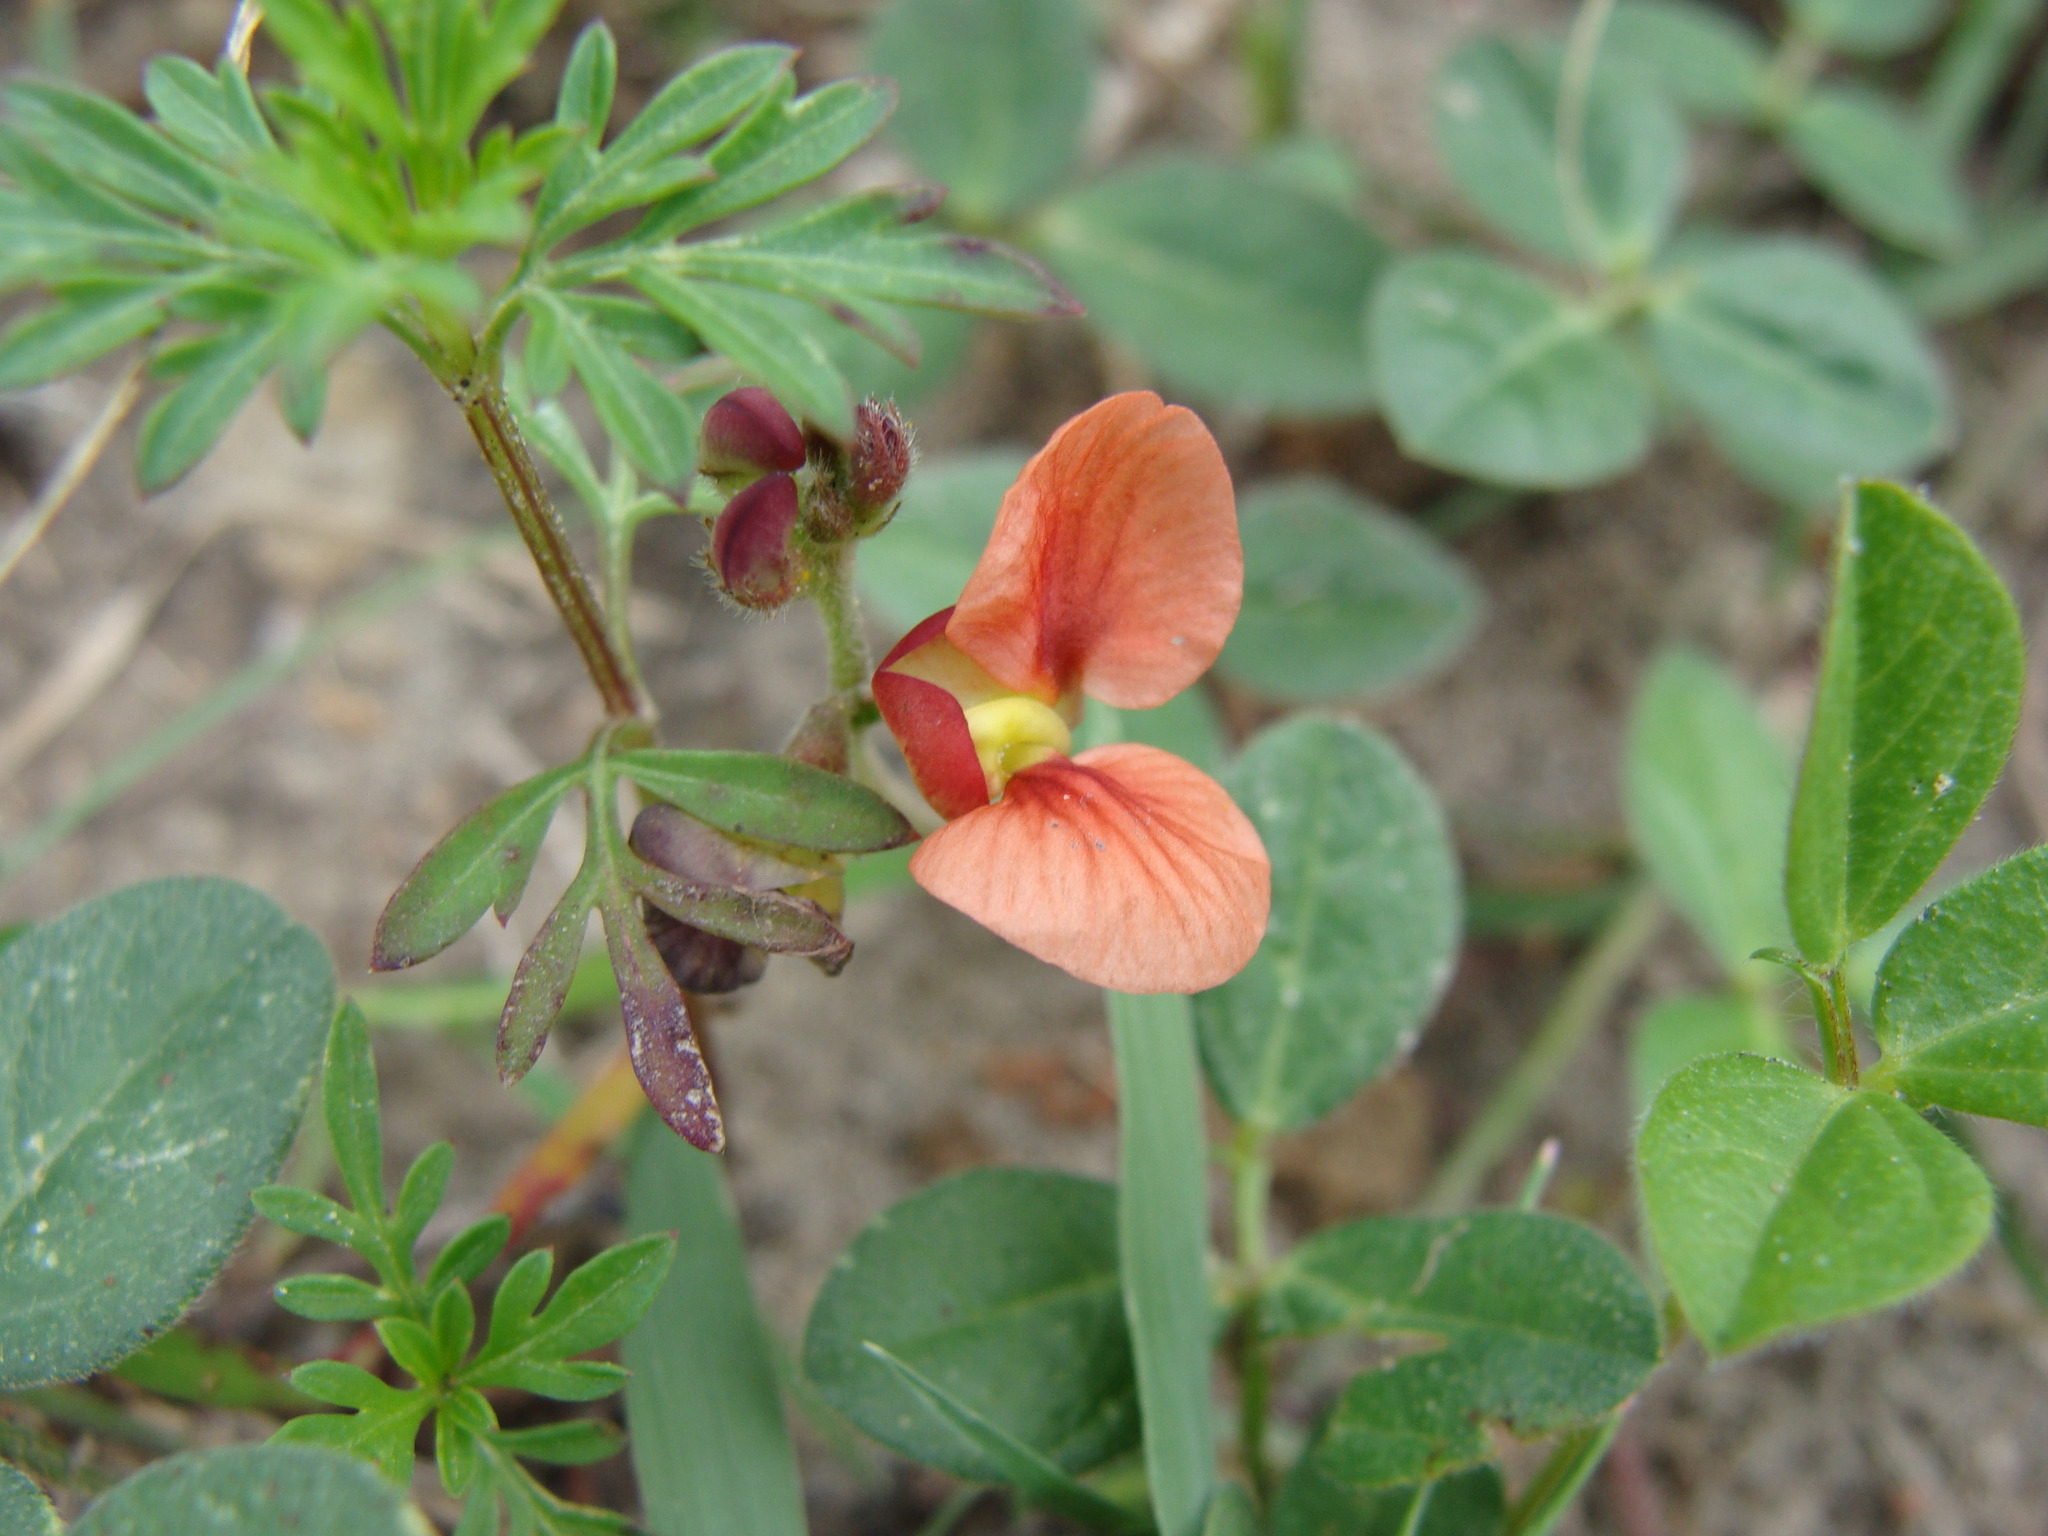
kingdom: Plantae
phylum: Tracheophyta
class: Magnoliopsida
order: Fabales
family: Fabaceae
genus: Macroptilium
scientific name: Macroptilium gibbosifolium
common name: Variableleaf bushbean
